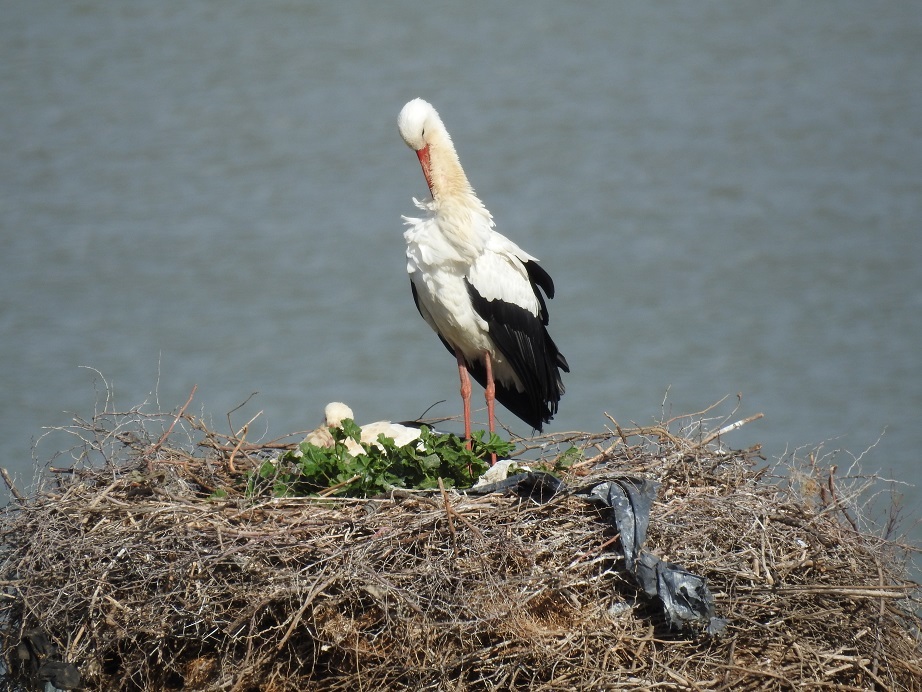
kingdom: Animalia
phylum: Chordata
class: Aves
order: Ciconiiformes
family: Ciconiidae
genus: Ciconia
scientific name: Ciconia ciconia
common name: White stork
